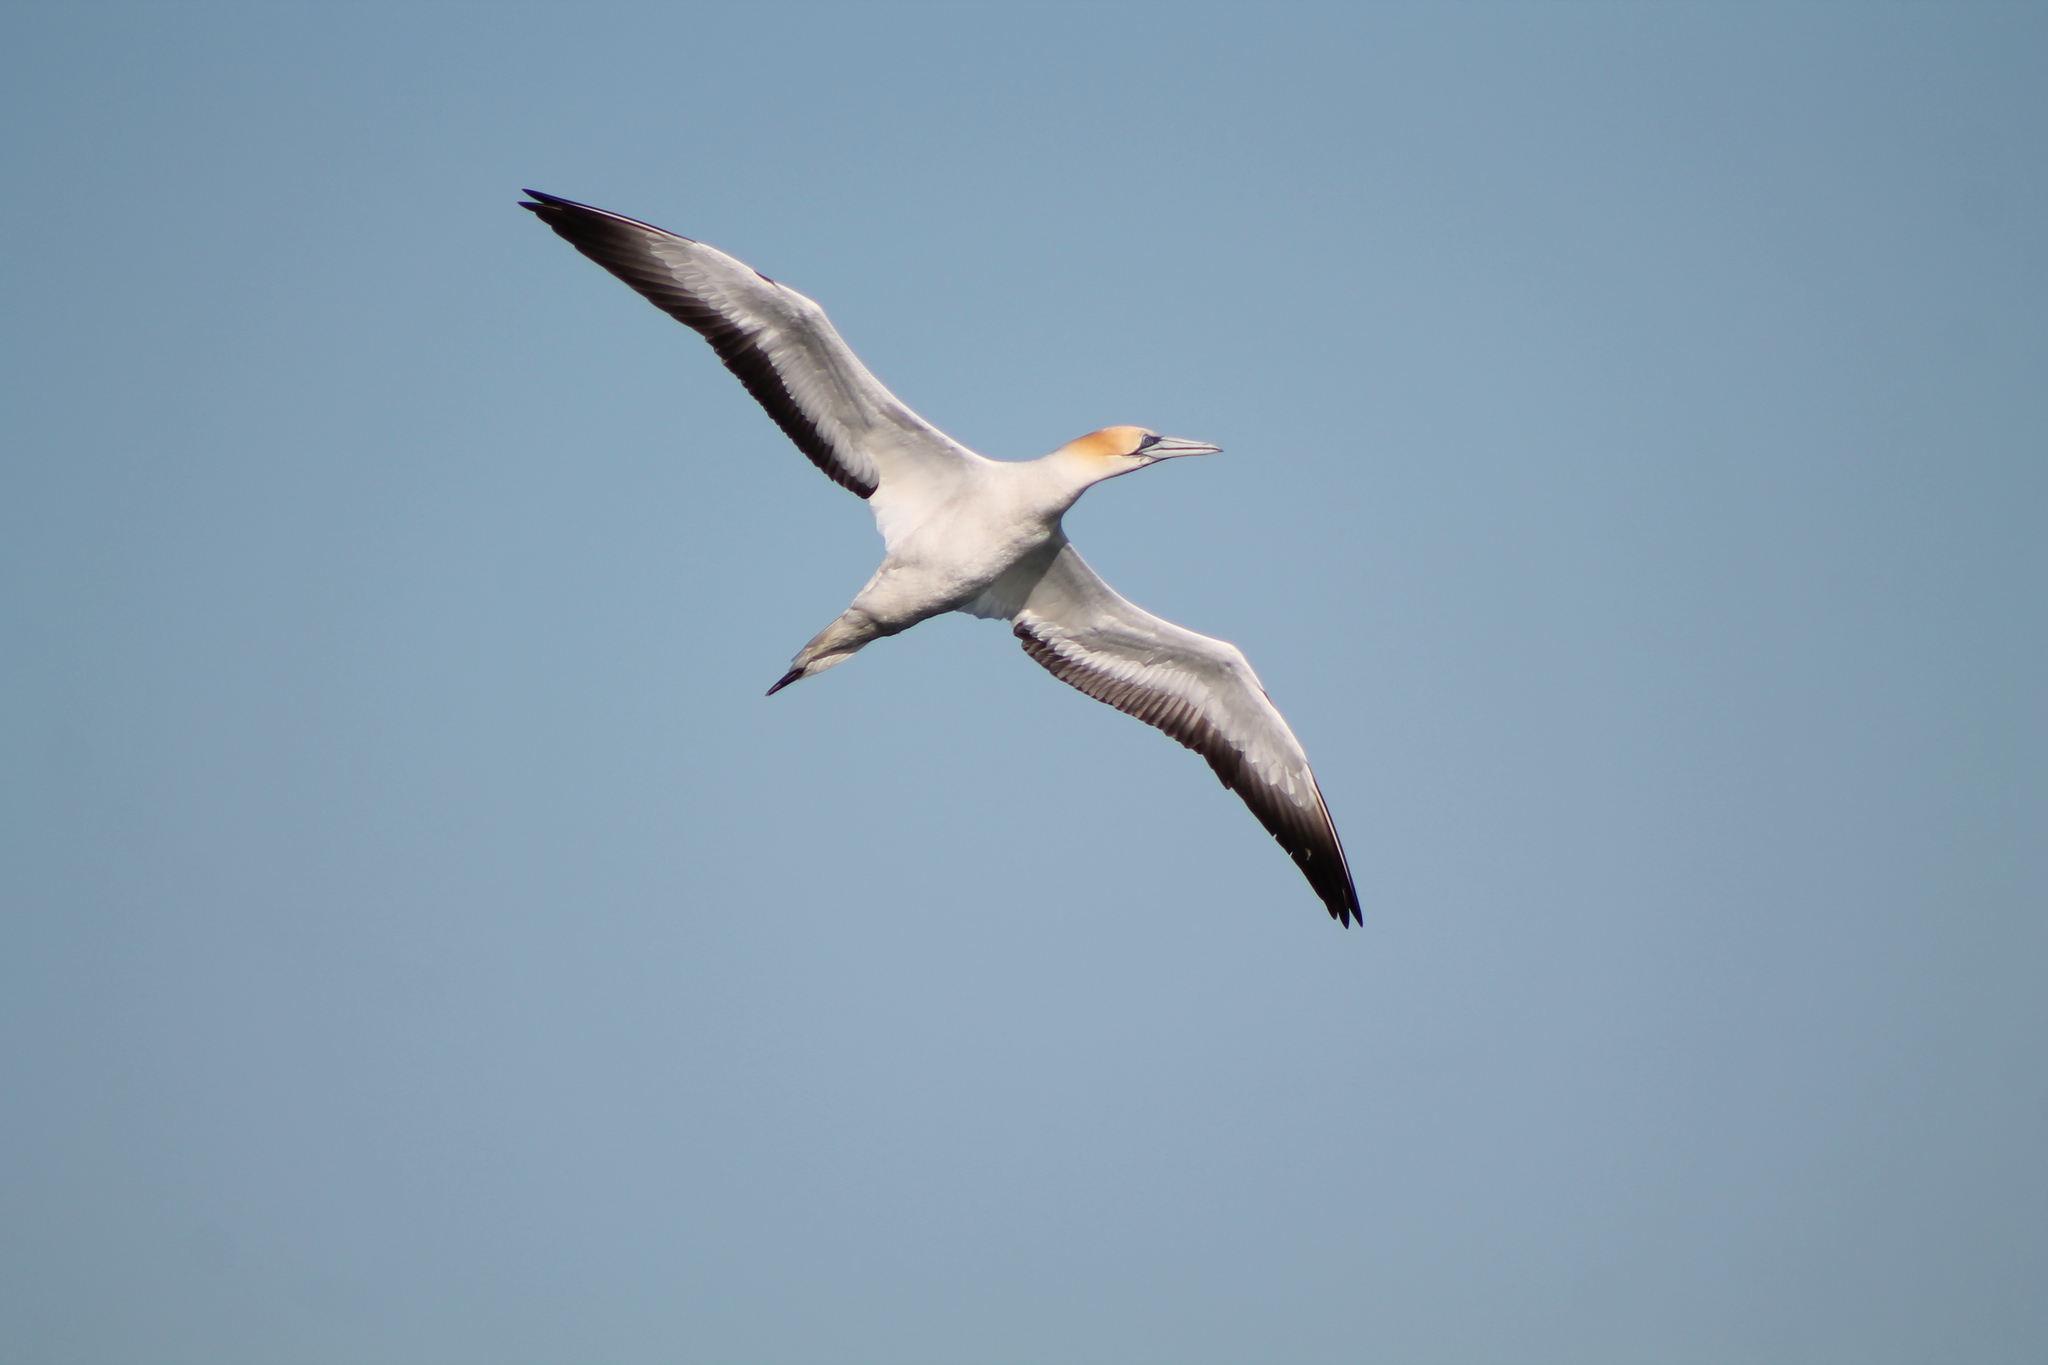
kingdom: Animalia
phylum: Chordata
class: Aves
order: Suliformes
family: Sulidae
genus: Morus
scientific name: Morus serrator
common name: Australasian gannet
